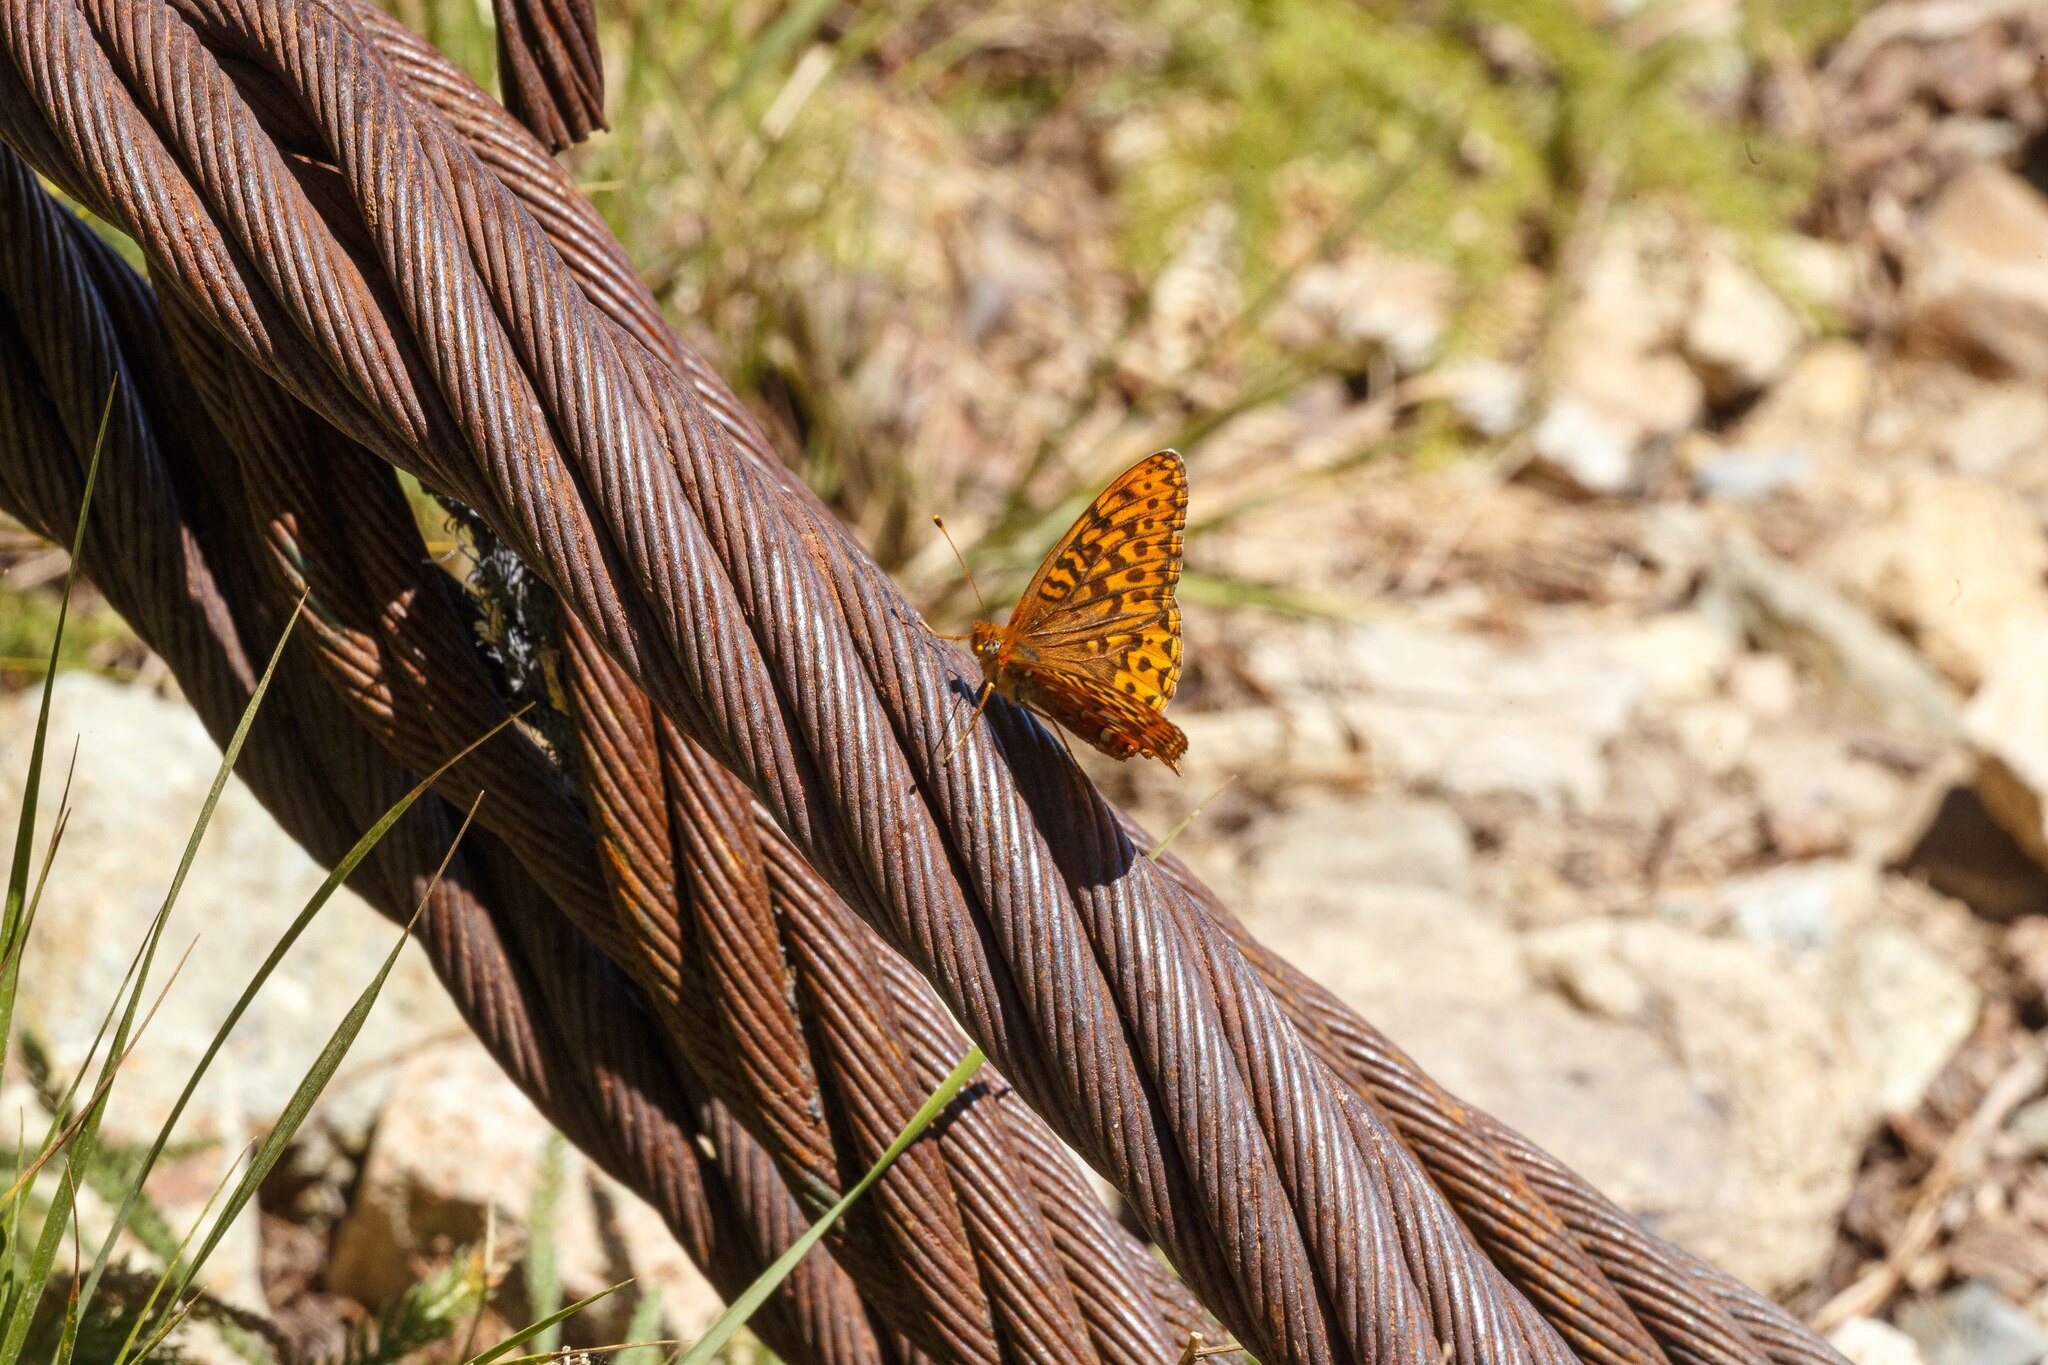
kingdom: Animalia
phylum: Arthropoda
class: Insecta
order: Lepidoptera
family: Nymphalidae
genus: Speyeria
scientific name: Speyeria hydaspe
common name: Hydaspe fritillary
